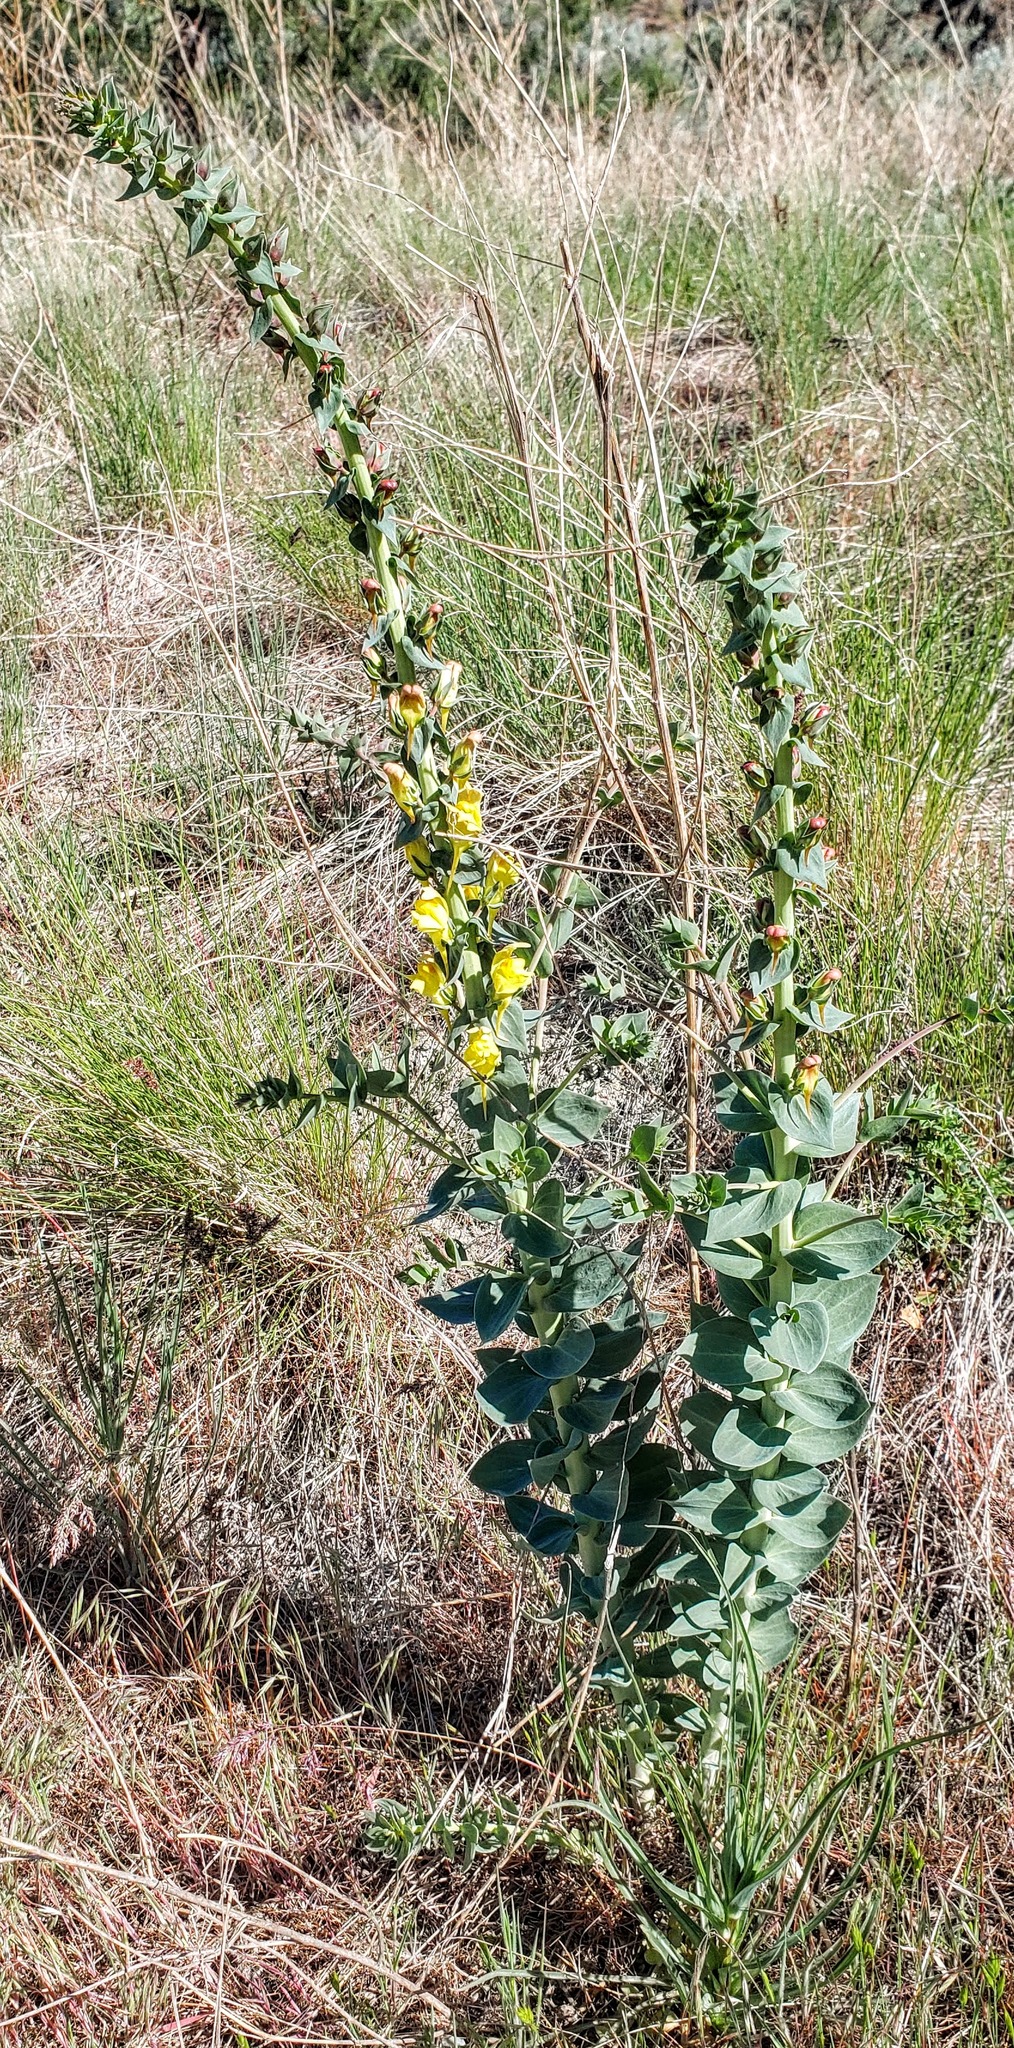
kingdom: Plantae
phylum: Tracheophyta
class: Magnoliopsida
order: Lamiales
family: Plantaginaceae
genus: Linaria
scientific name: Linaria dalmatica
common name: Dalmatian toadflax
